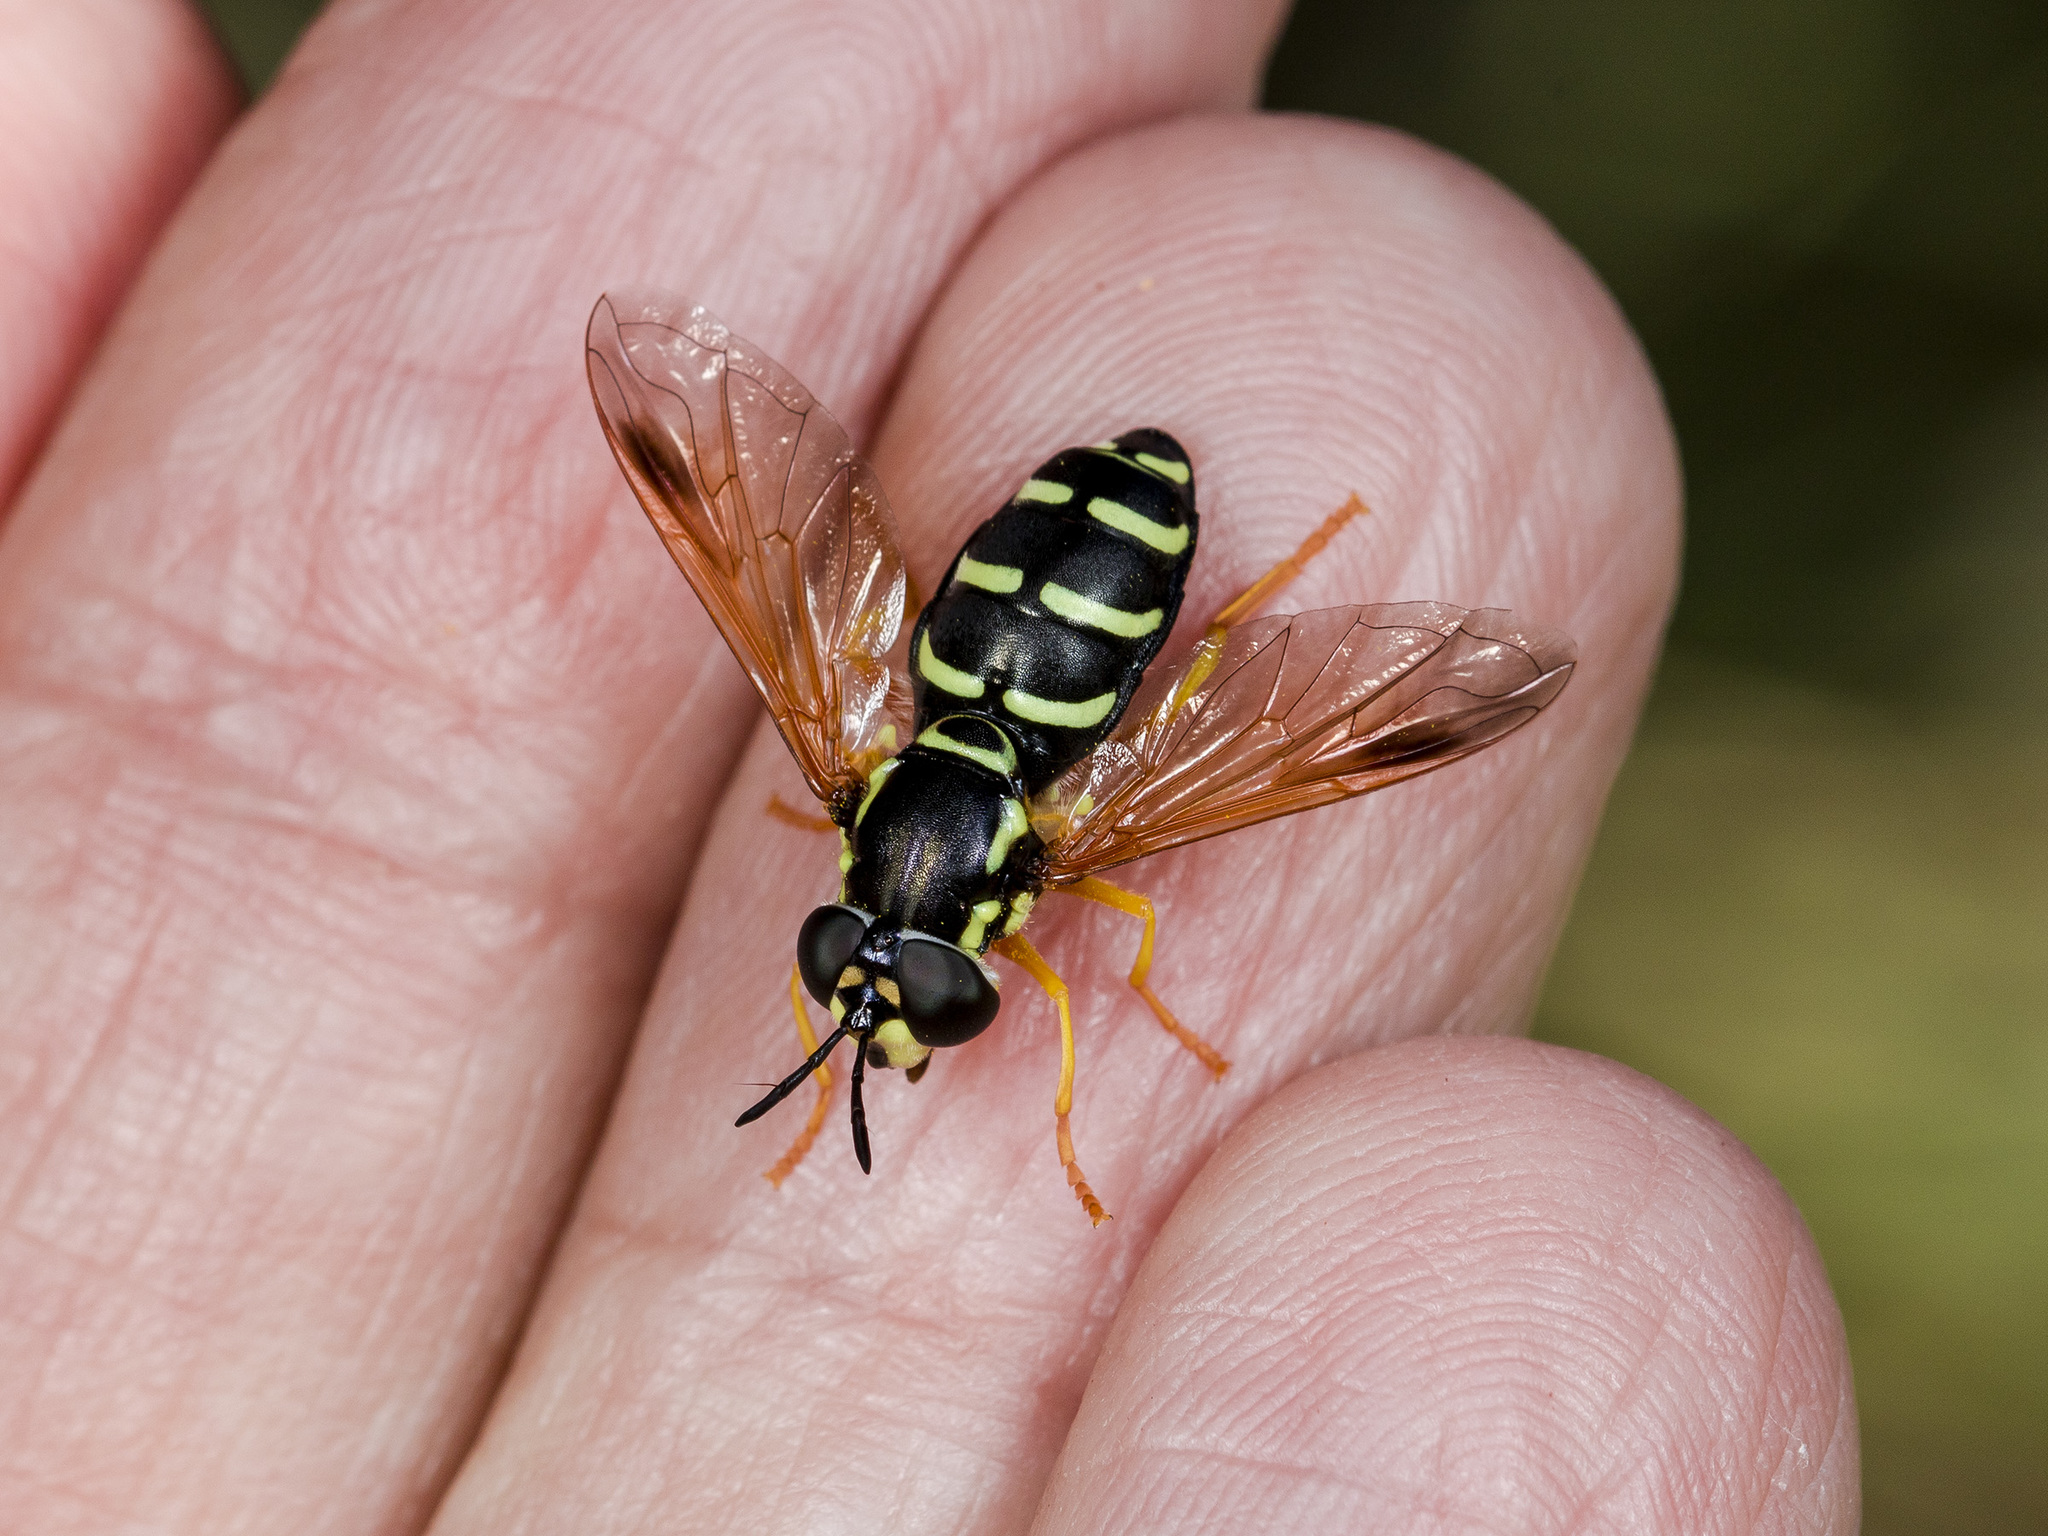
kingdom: Animalia
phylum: Arthropoda
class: Insecta
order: Diptera
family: Syrphidae
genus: Chrysotoxum
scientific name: Chrysotoxum festivum
